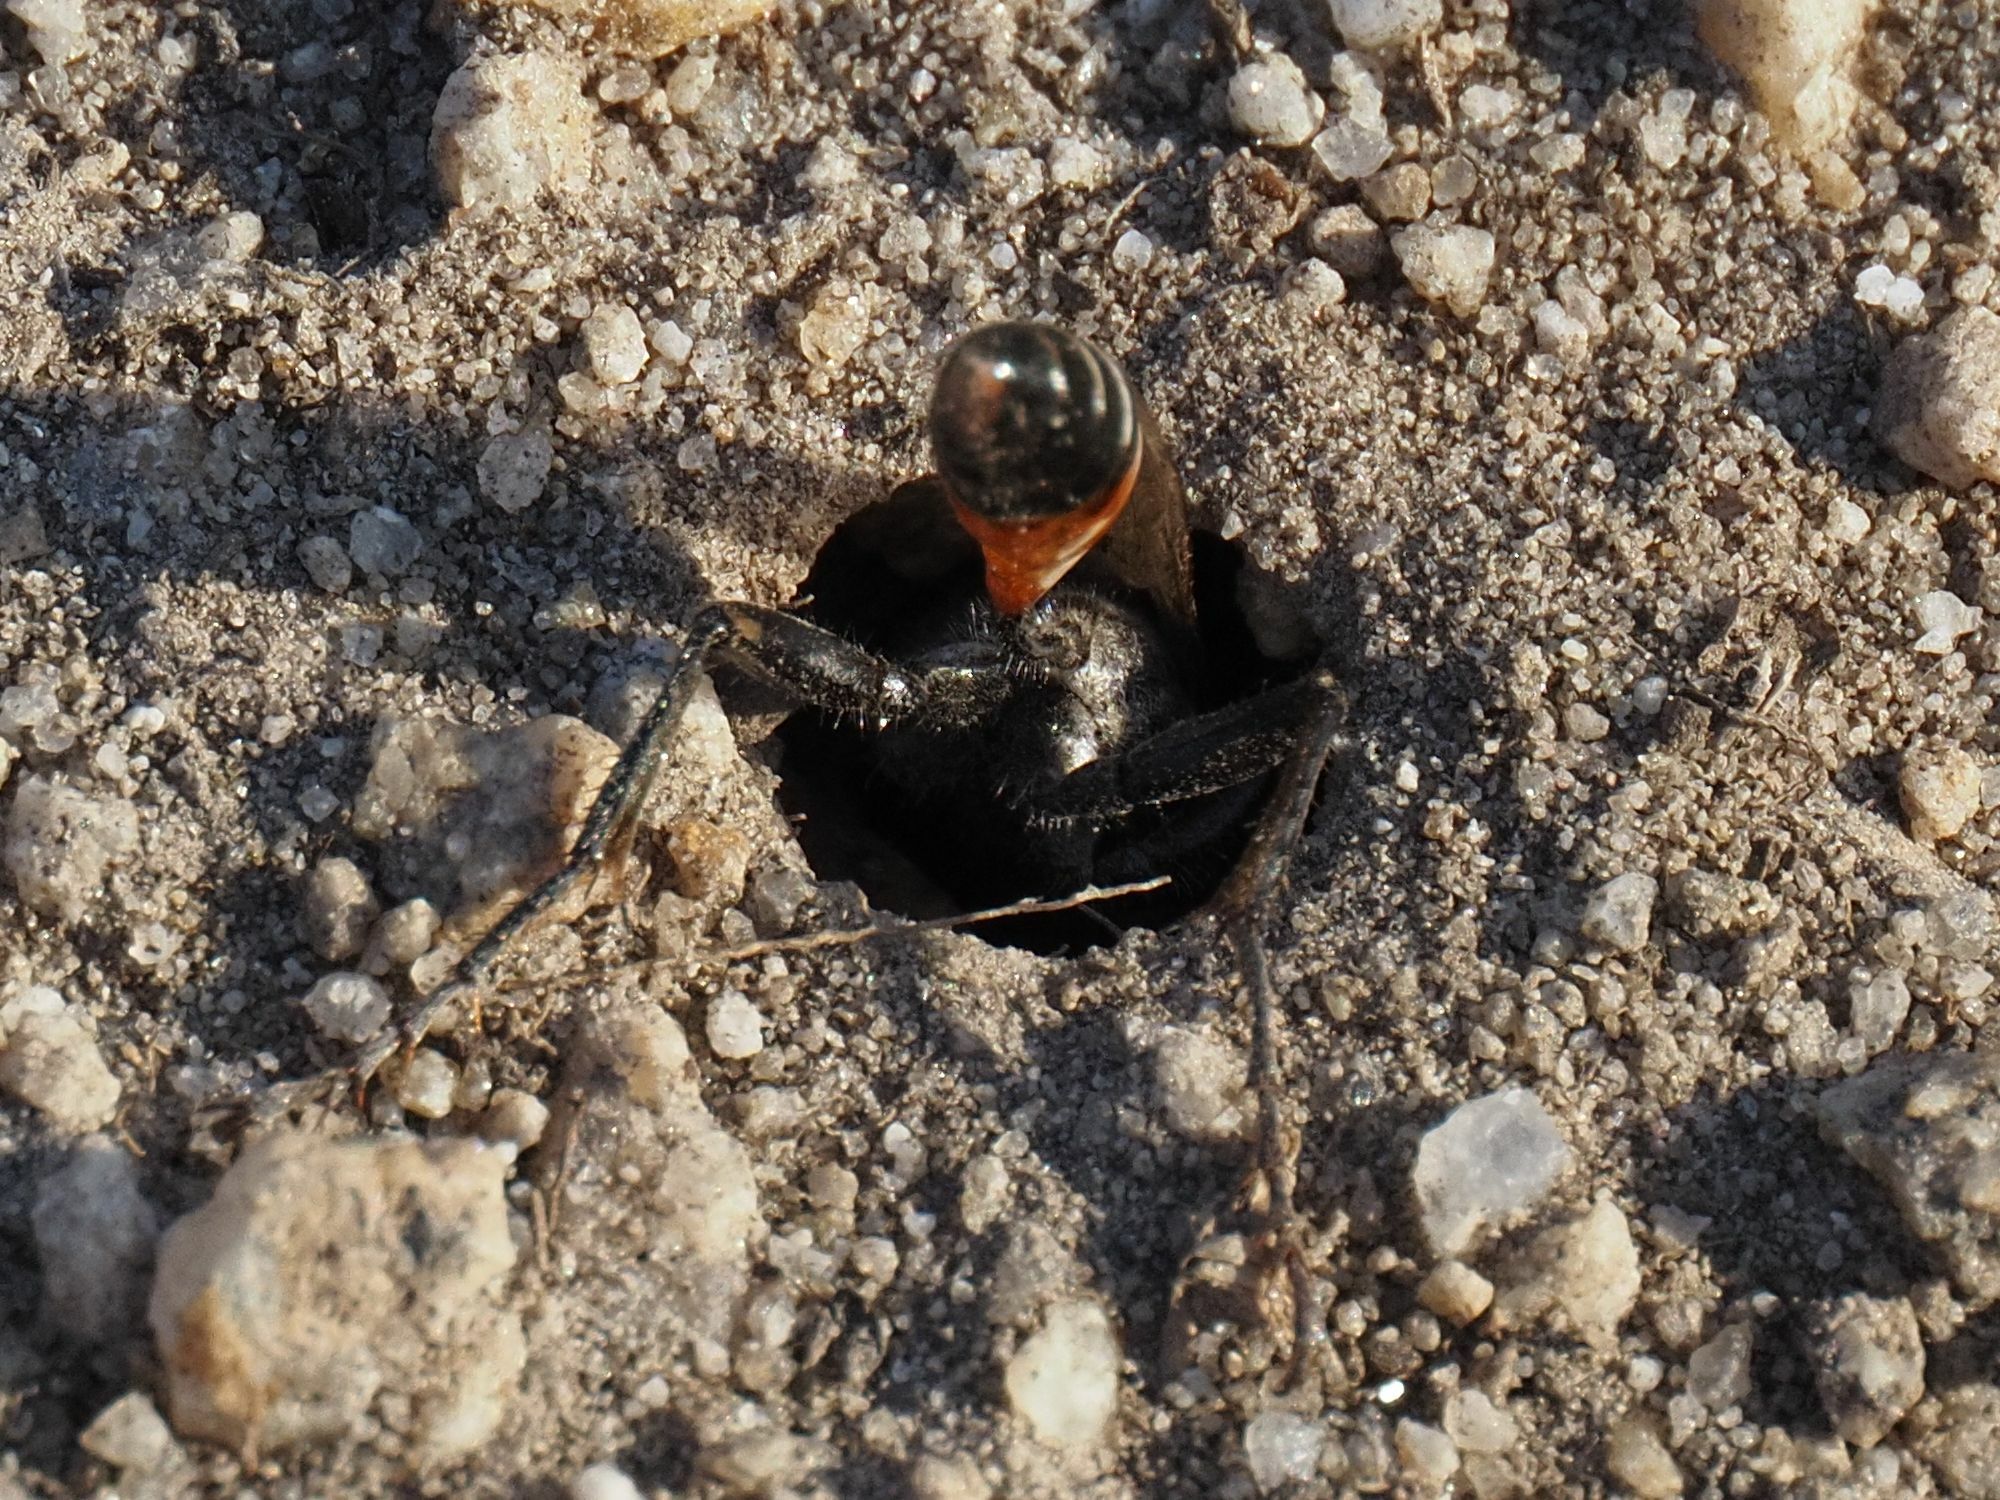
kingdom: Animalia
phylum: Arthropoda
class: Insecta
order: Hymenoptera
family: Sphecidae
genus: Prionyx
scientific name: Prionyx kirbii
